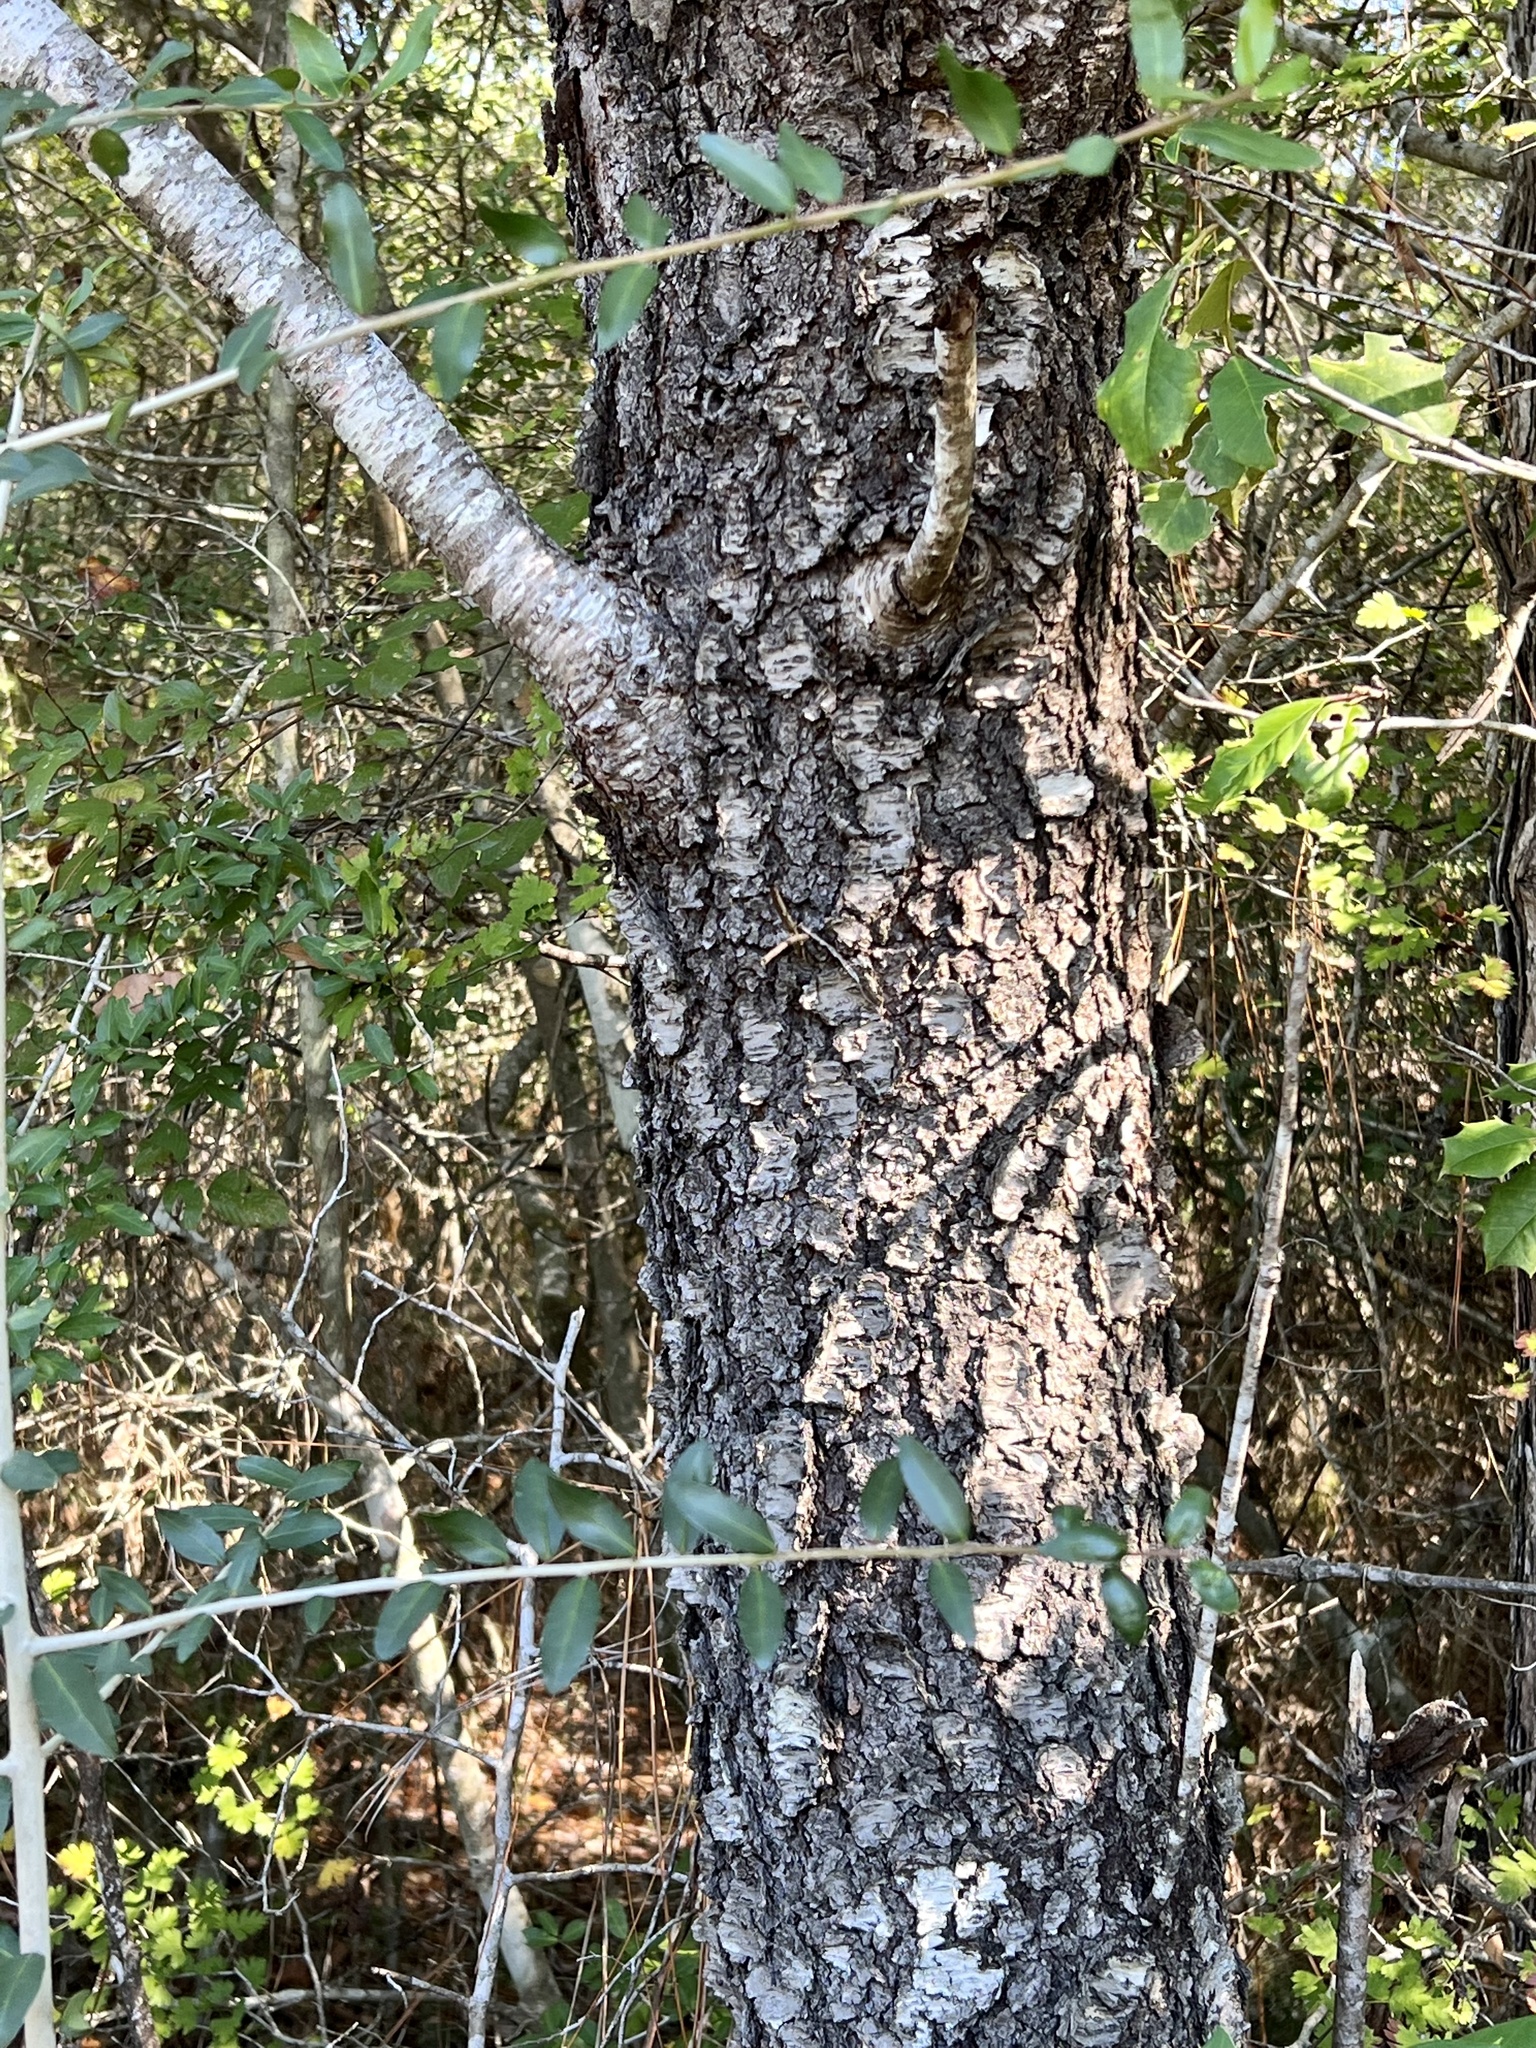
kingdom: Plantae
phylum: Tracheophyta
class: Magnoliopsida
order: Rosales
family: Rosaceae
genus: Prunus
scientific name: Prunus serotina
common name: Black cherry
